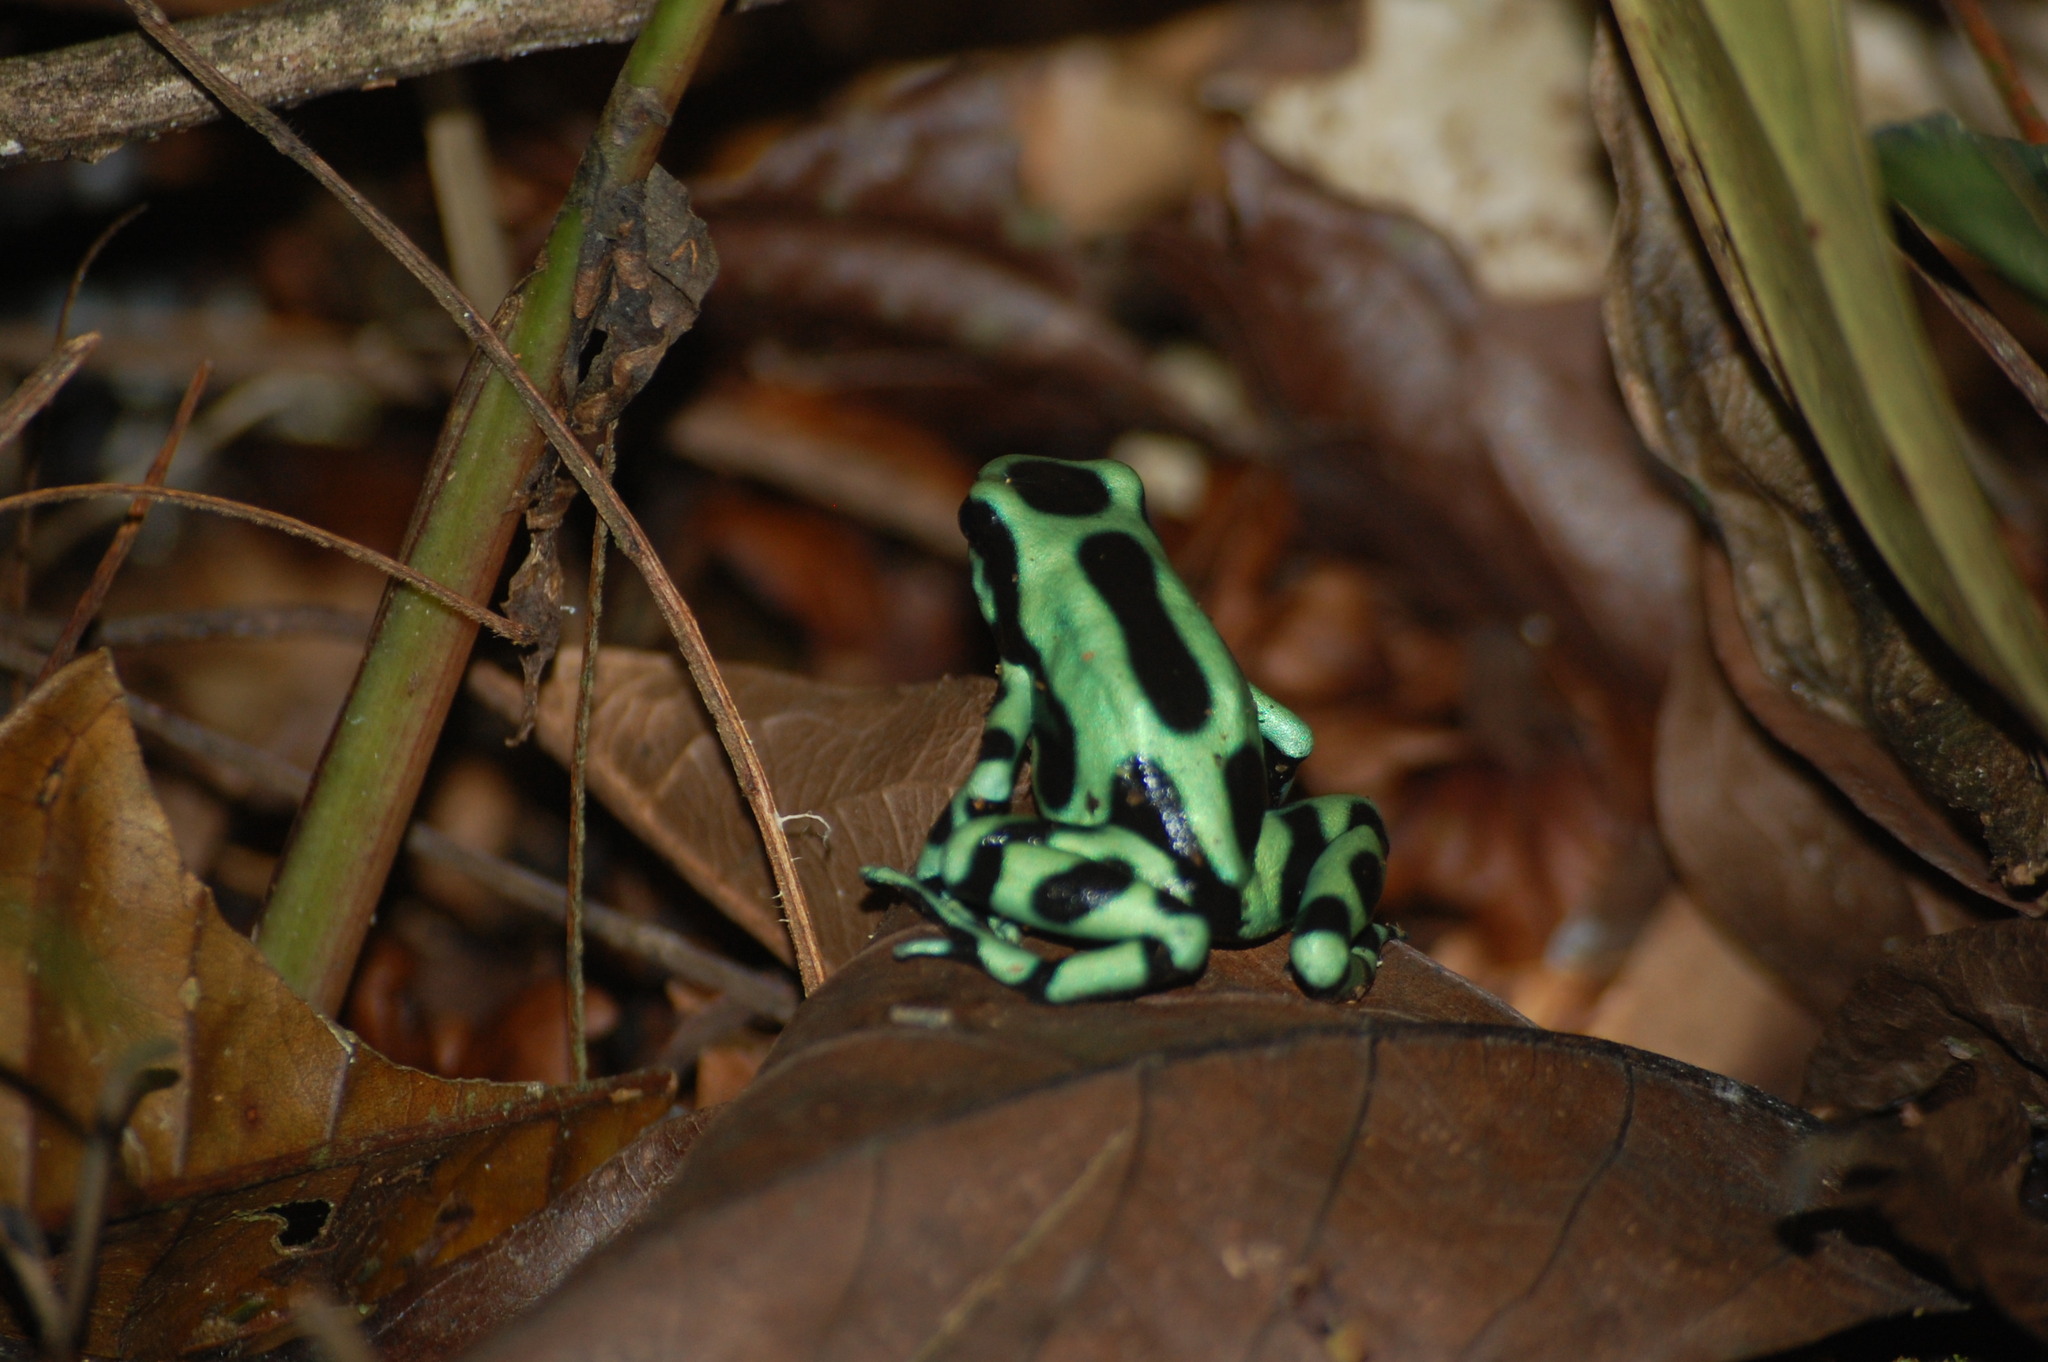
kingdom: Animalia
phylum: Chordata
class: Amphibia
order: Anura
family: Dendrobatidae
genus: Dendrobates
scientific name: Dendrobates auratus
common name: Green and black poison dart frog
